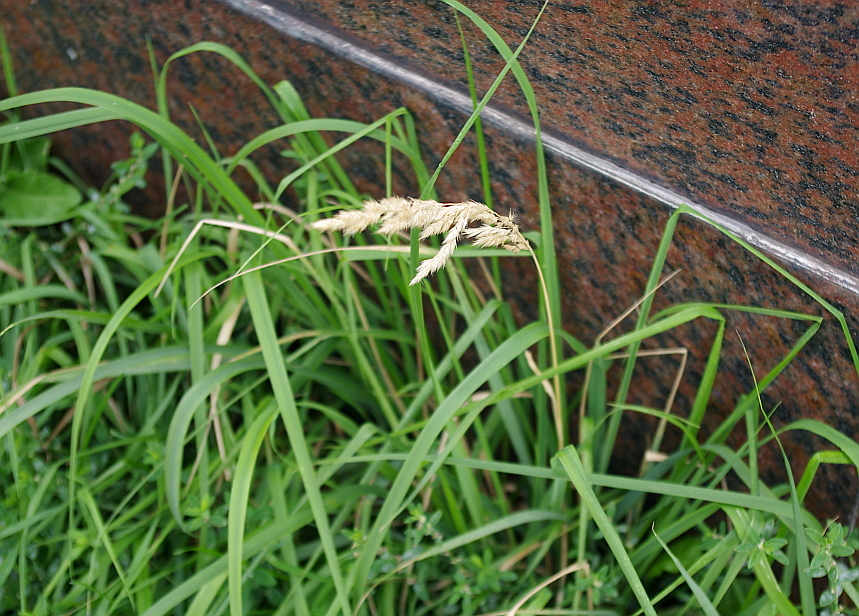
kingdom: Plantae
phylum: Tracheophyta
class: Liliopsida
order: Poales
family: Poaceae
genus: Calamagrostis
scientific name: Calamagrostis epigejos
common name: Wood small-reed
